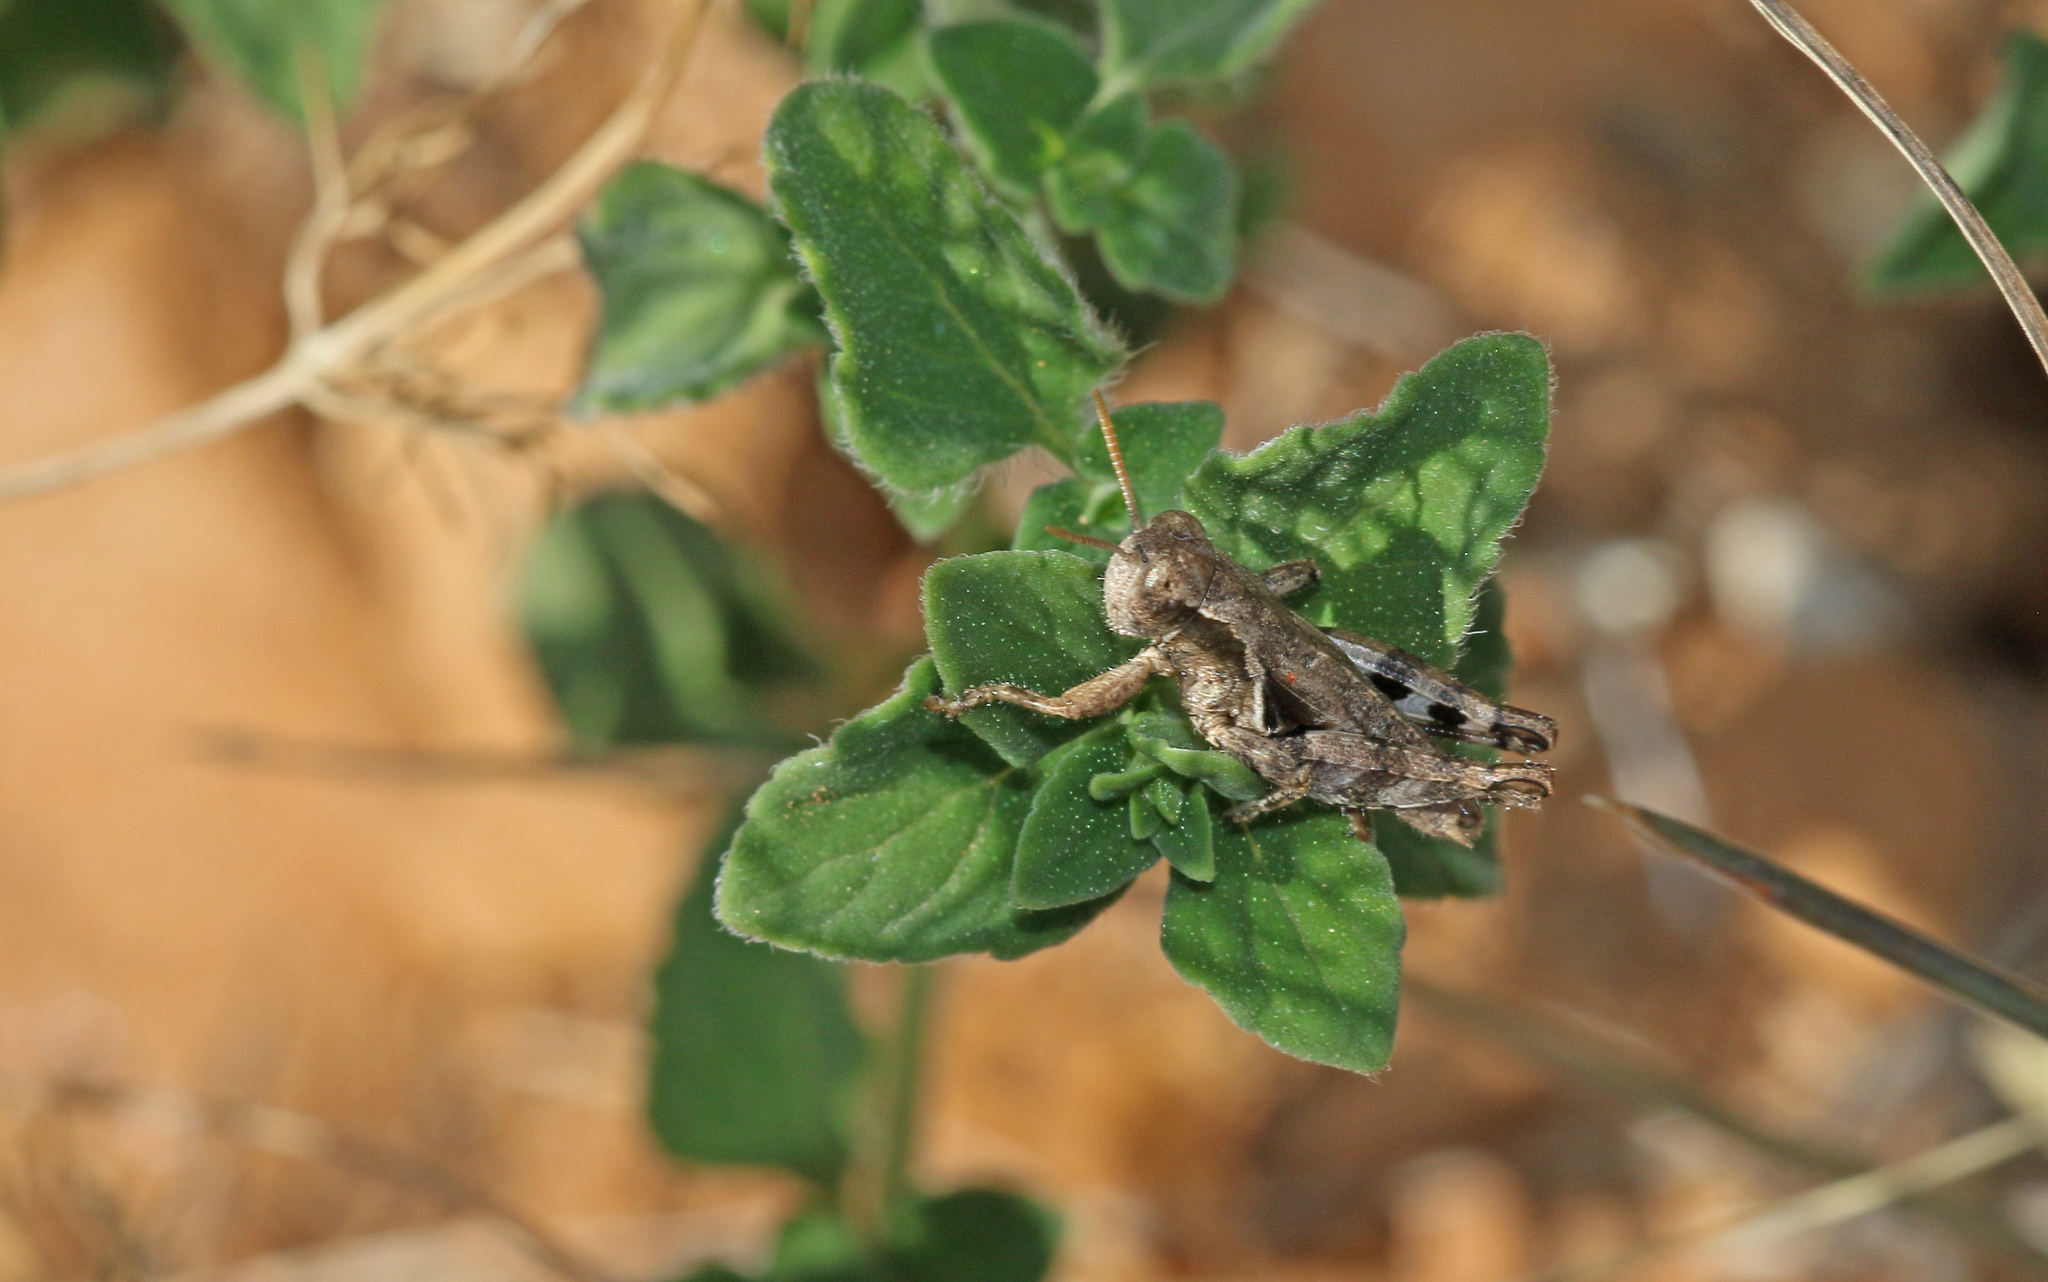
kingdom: Animalia
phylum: Arthropoda
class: Insecta
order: Orthoptera
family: Acrididae
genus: Pezotettix
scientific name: Pezotettix giornae
